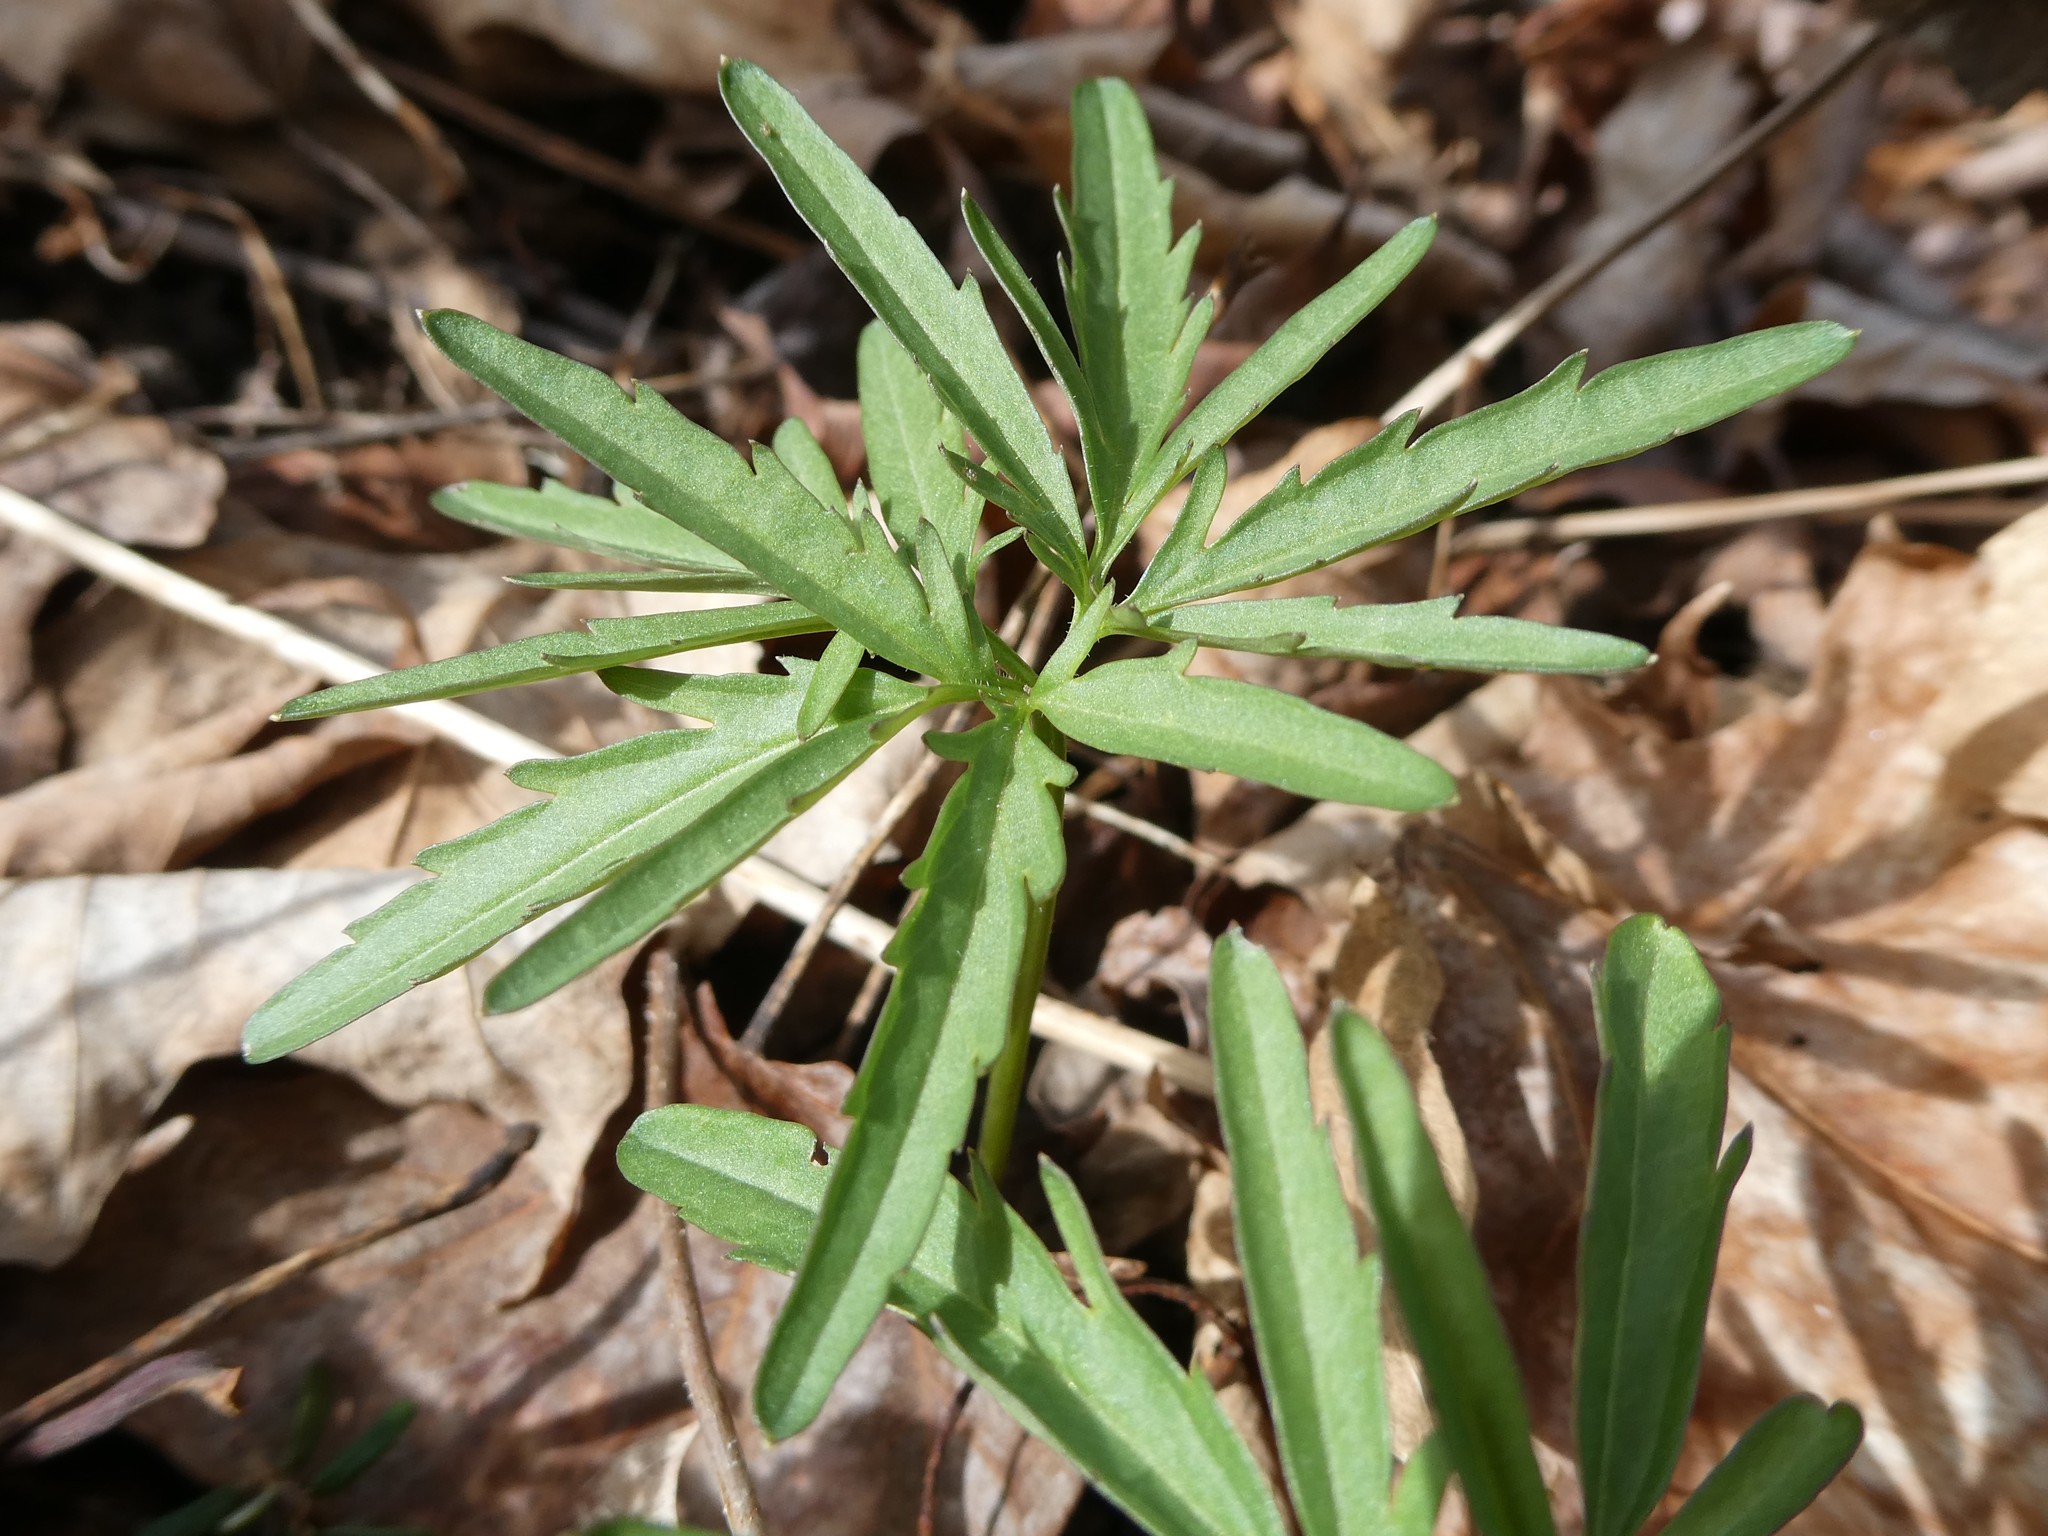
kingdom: Plantae
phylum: Tracheophyta
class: Magnoliopsida
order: Brassicales
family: Brassicaceae
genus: Cardamine
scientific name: Cardamine concatenata
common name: Cut-leaf toothcup
